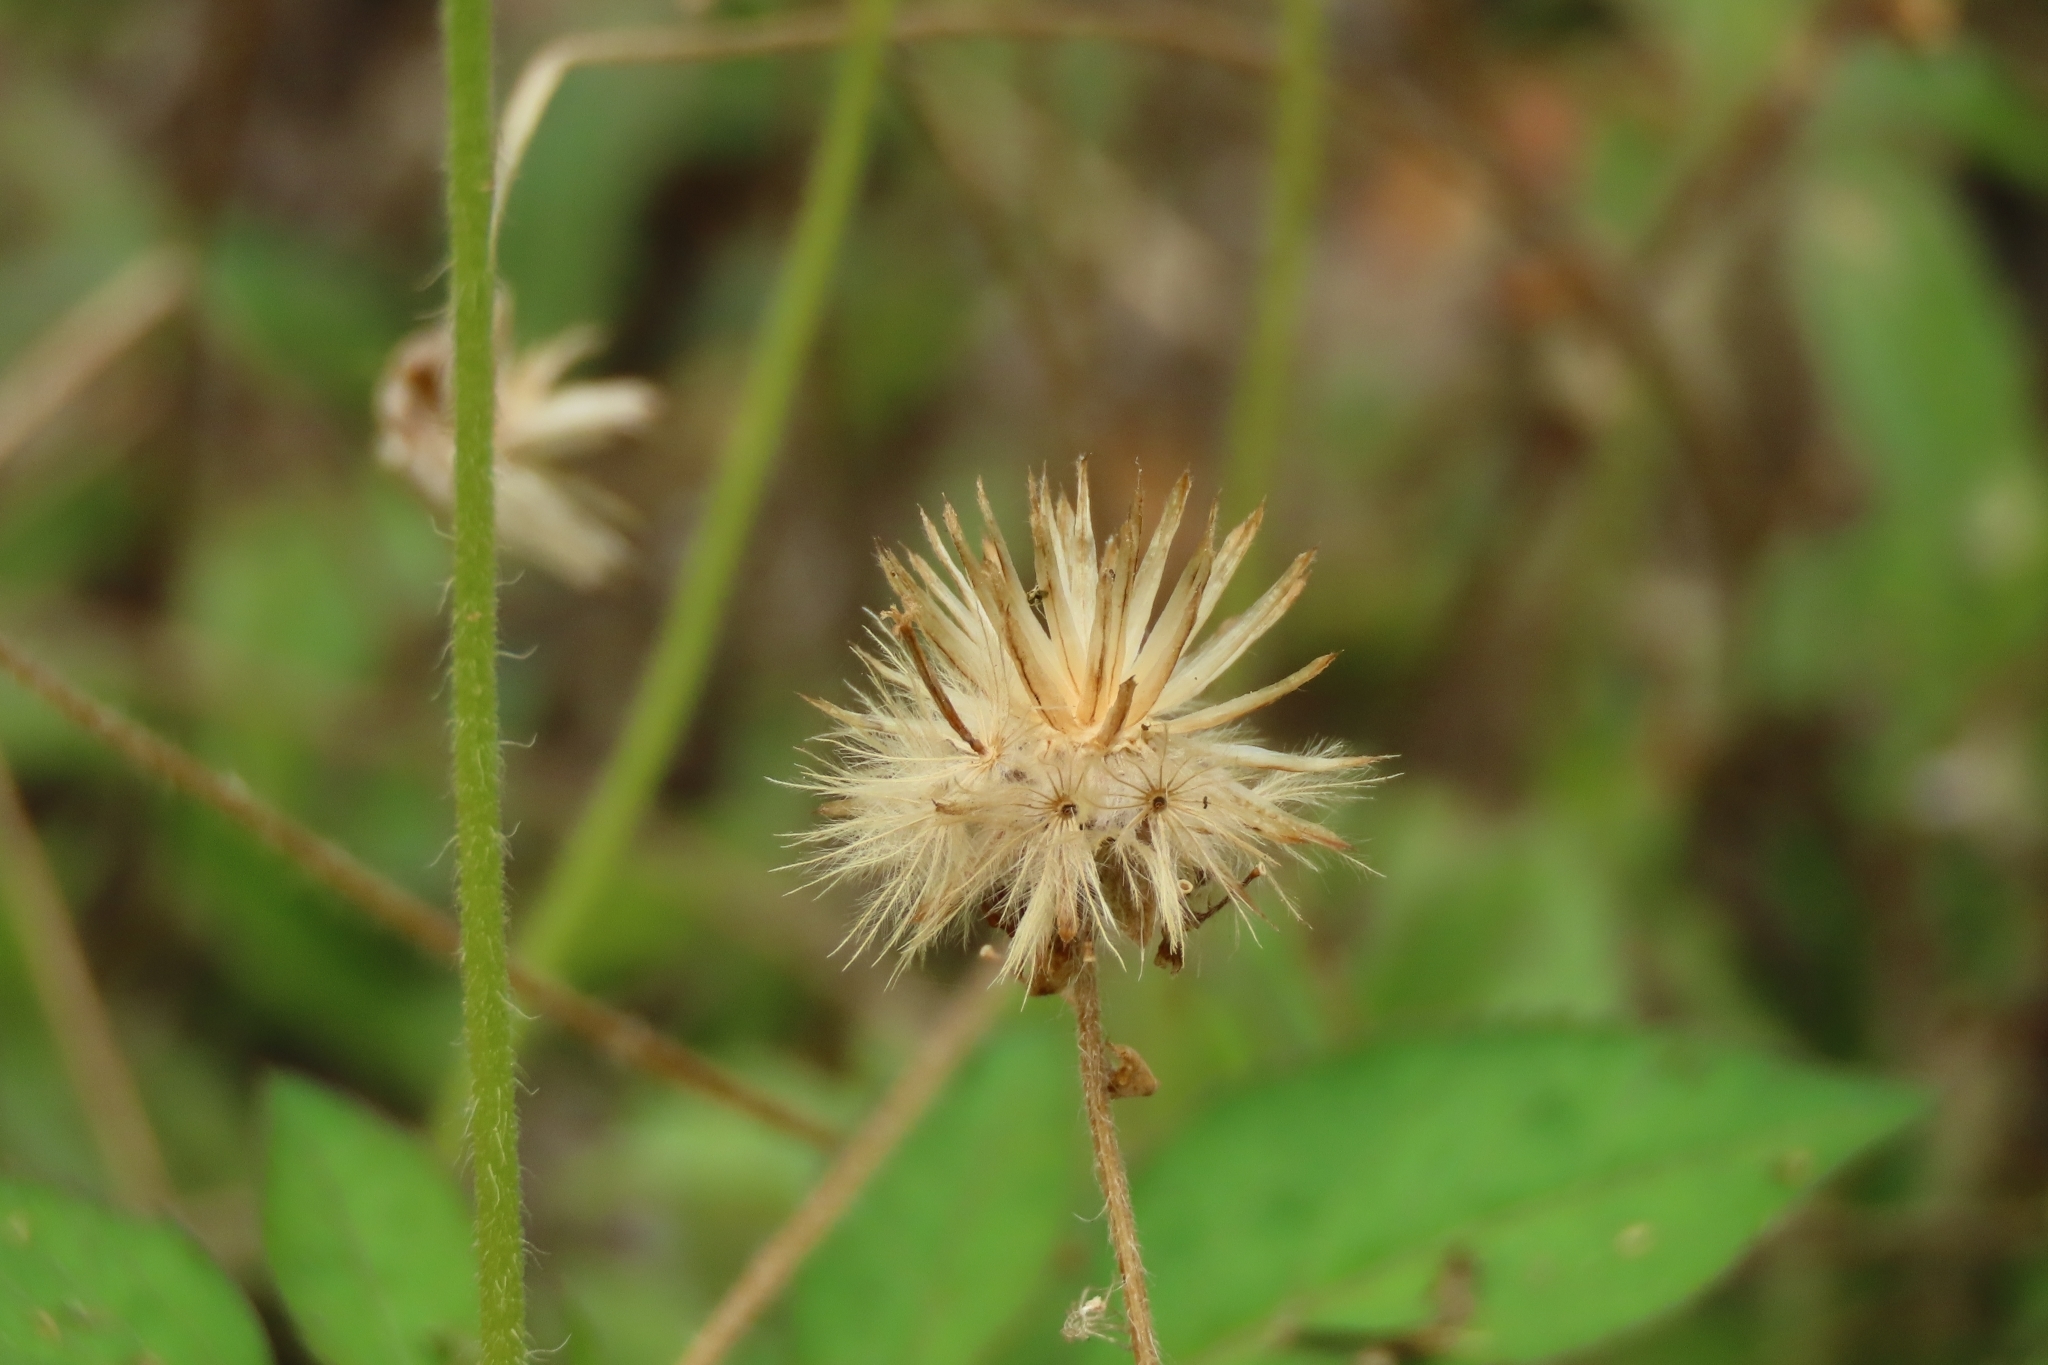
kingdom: Plantae
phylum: Tracheophyta
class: Magnoliopsida
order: Asterales
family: Asteraceae
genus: Tridax
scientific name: Tridax procumbens
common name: Coatbuttons
